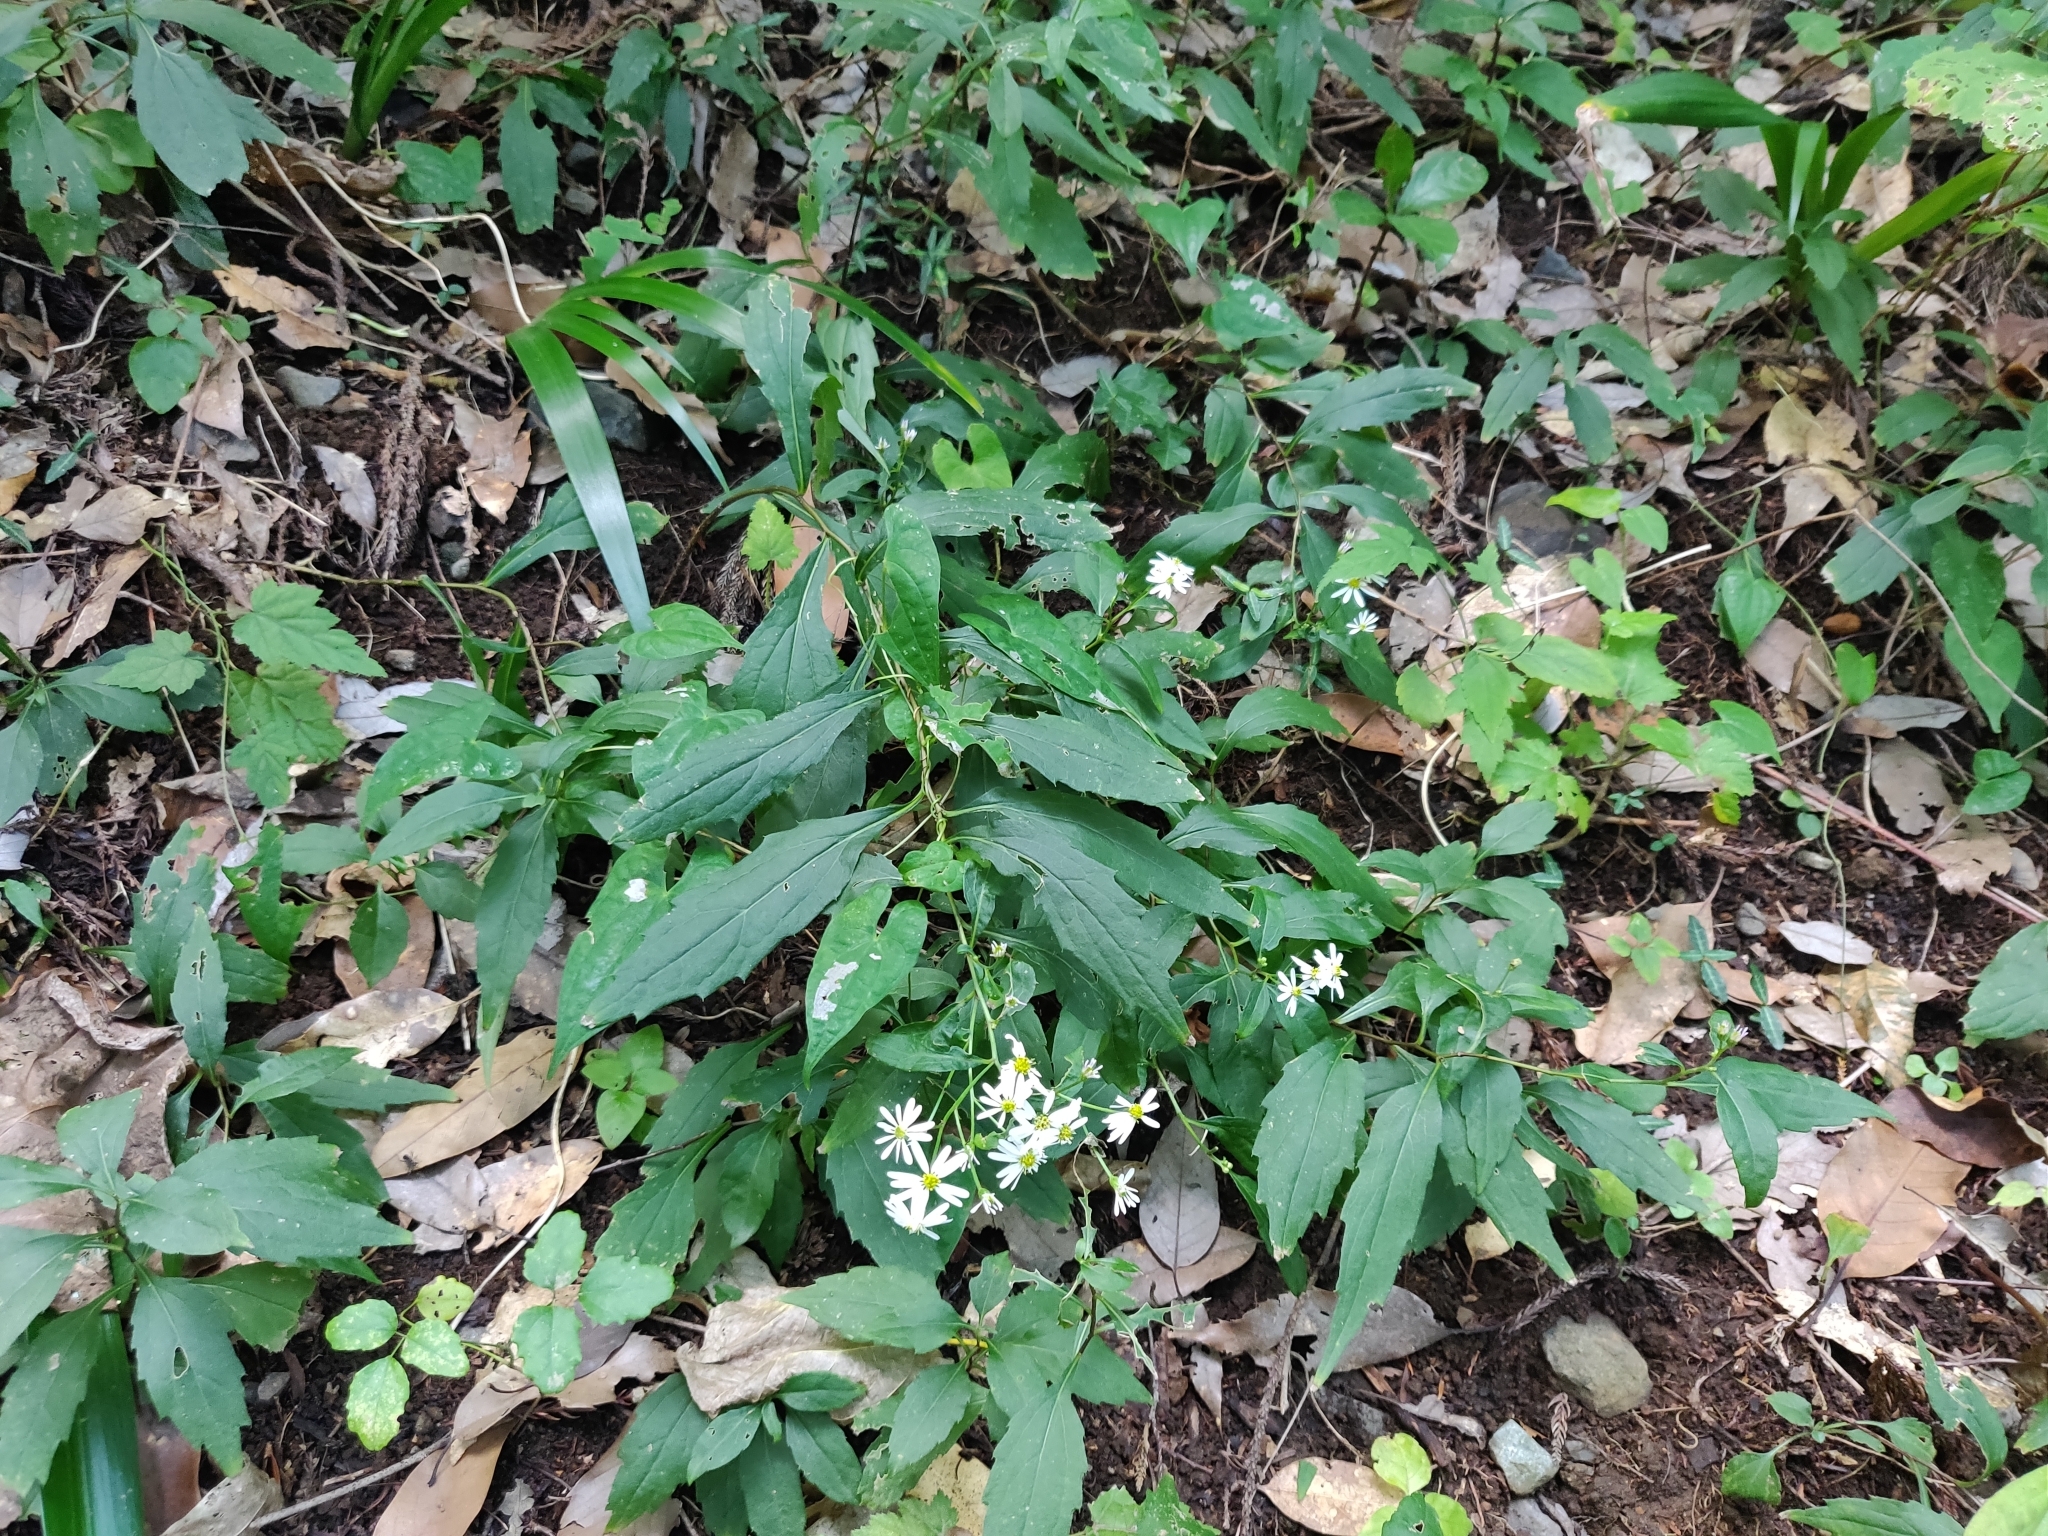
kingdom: Plantae
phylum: Tracheophyta
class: Magnoliopsida
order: Asterales
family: Asteraceae
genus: Aster
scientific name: Aster ageratoides
